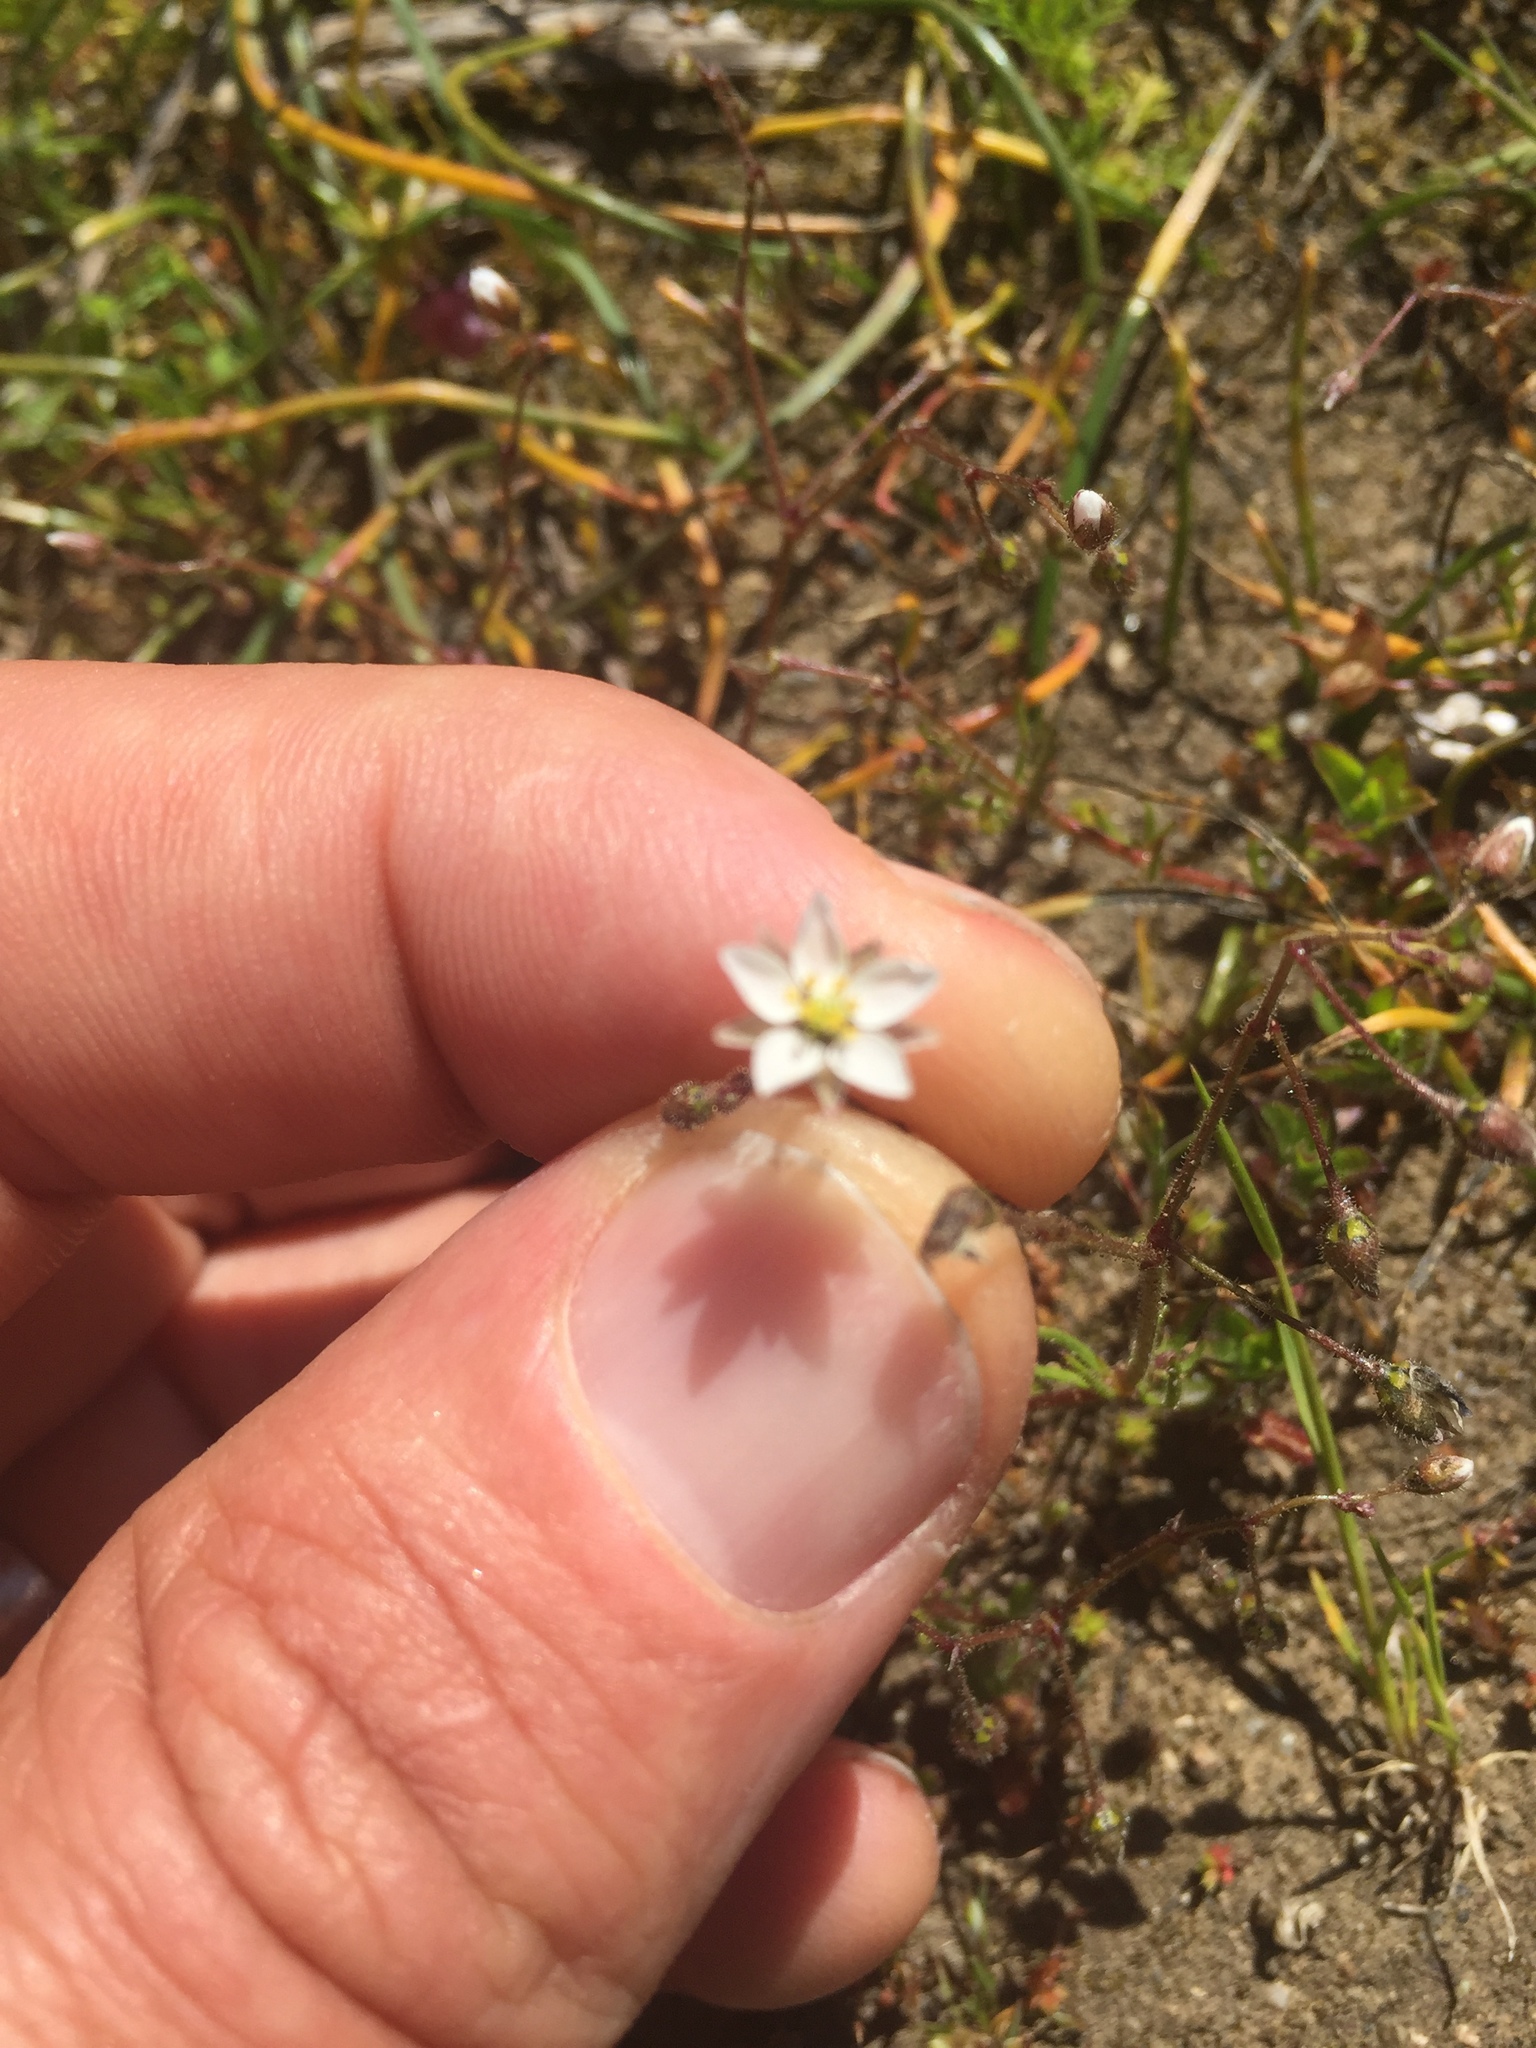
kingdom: Plantae
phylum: Tracheophyta
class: Magnoliopsida
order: Caryophyllales
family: Caryophyllaceae
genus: Spergula
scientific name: Spergula arvensis
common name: Corn spurrey
